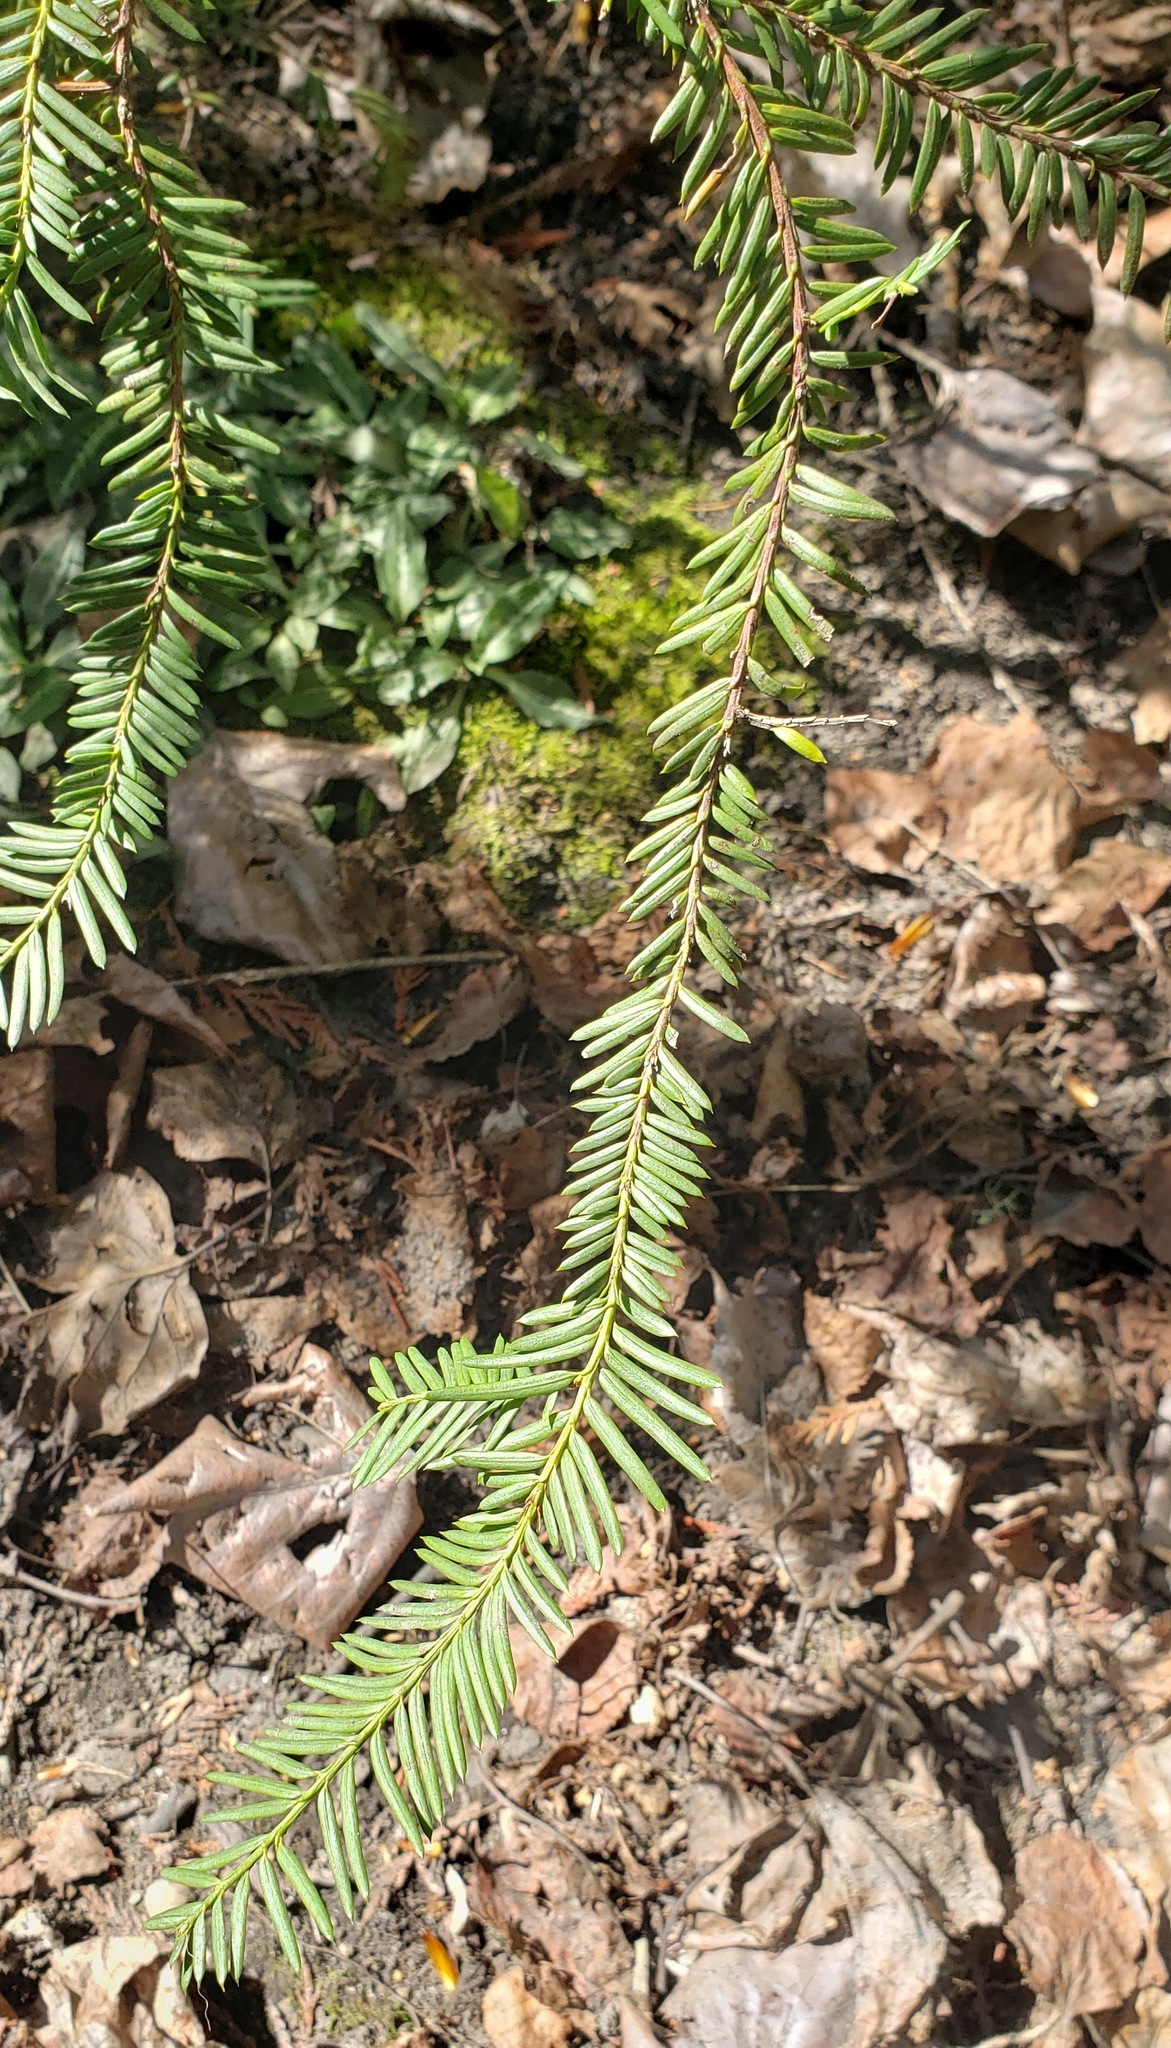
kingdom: Plantae
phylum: Tracheophyta
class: Pinopsida
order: Pinales
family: Taxaceae
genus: Taxus
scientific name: Taxus brevifolia
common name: Pacific yew
